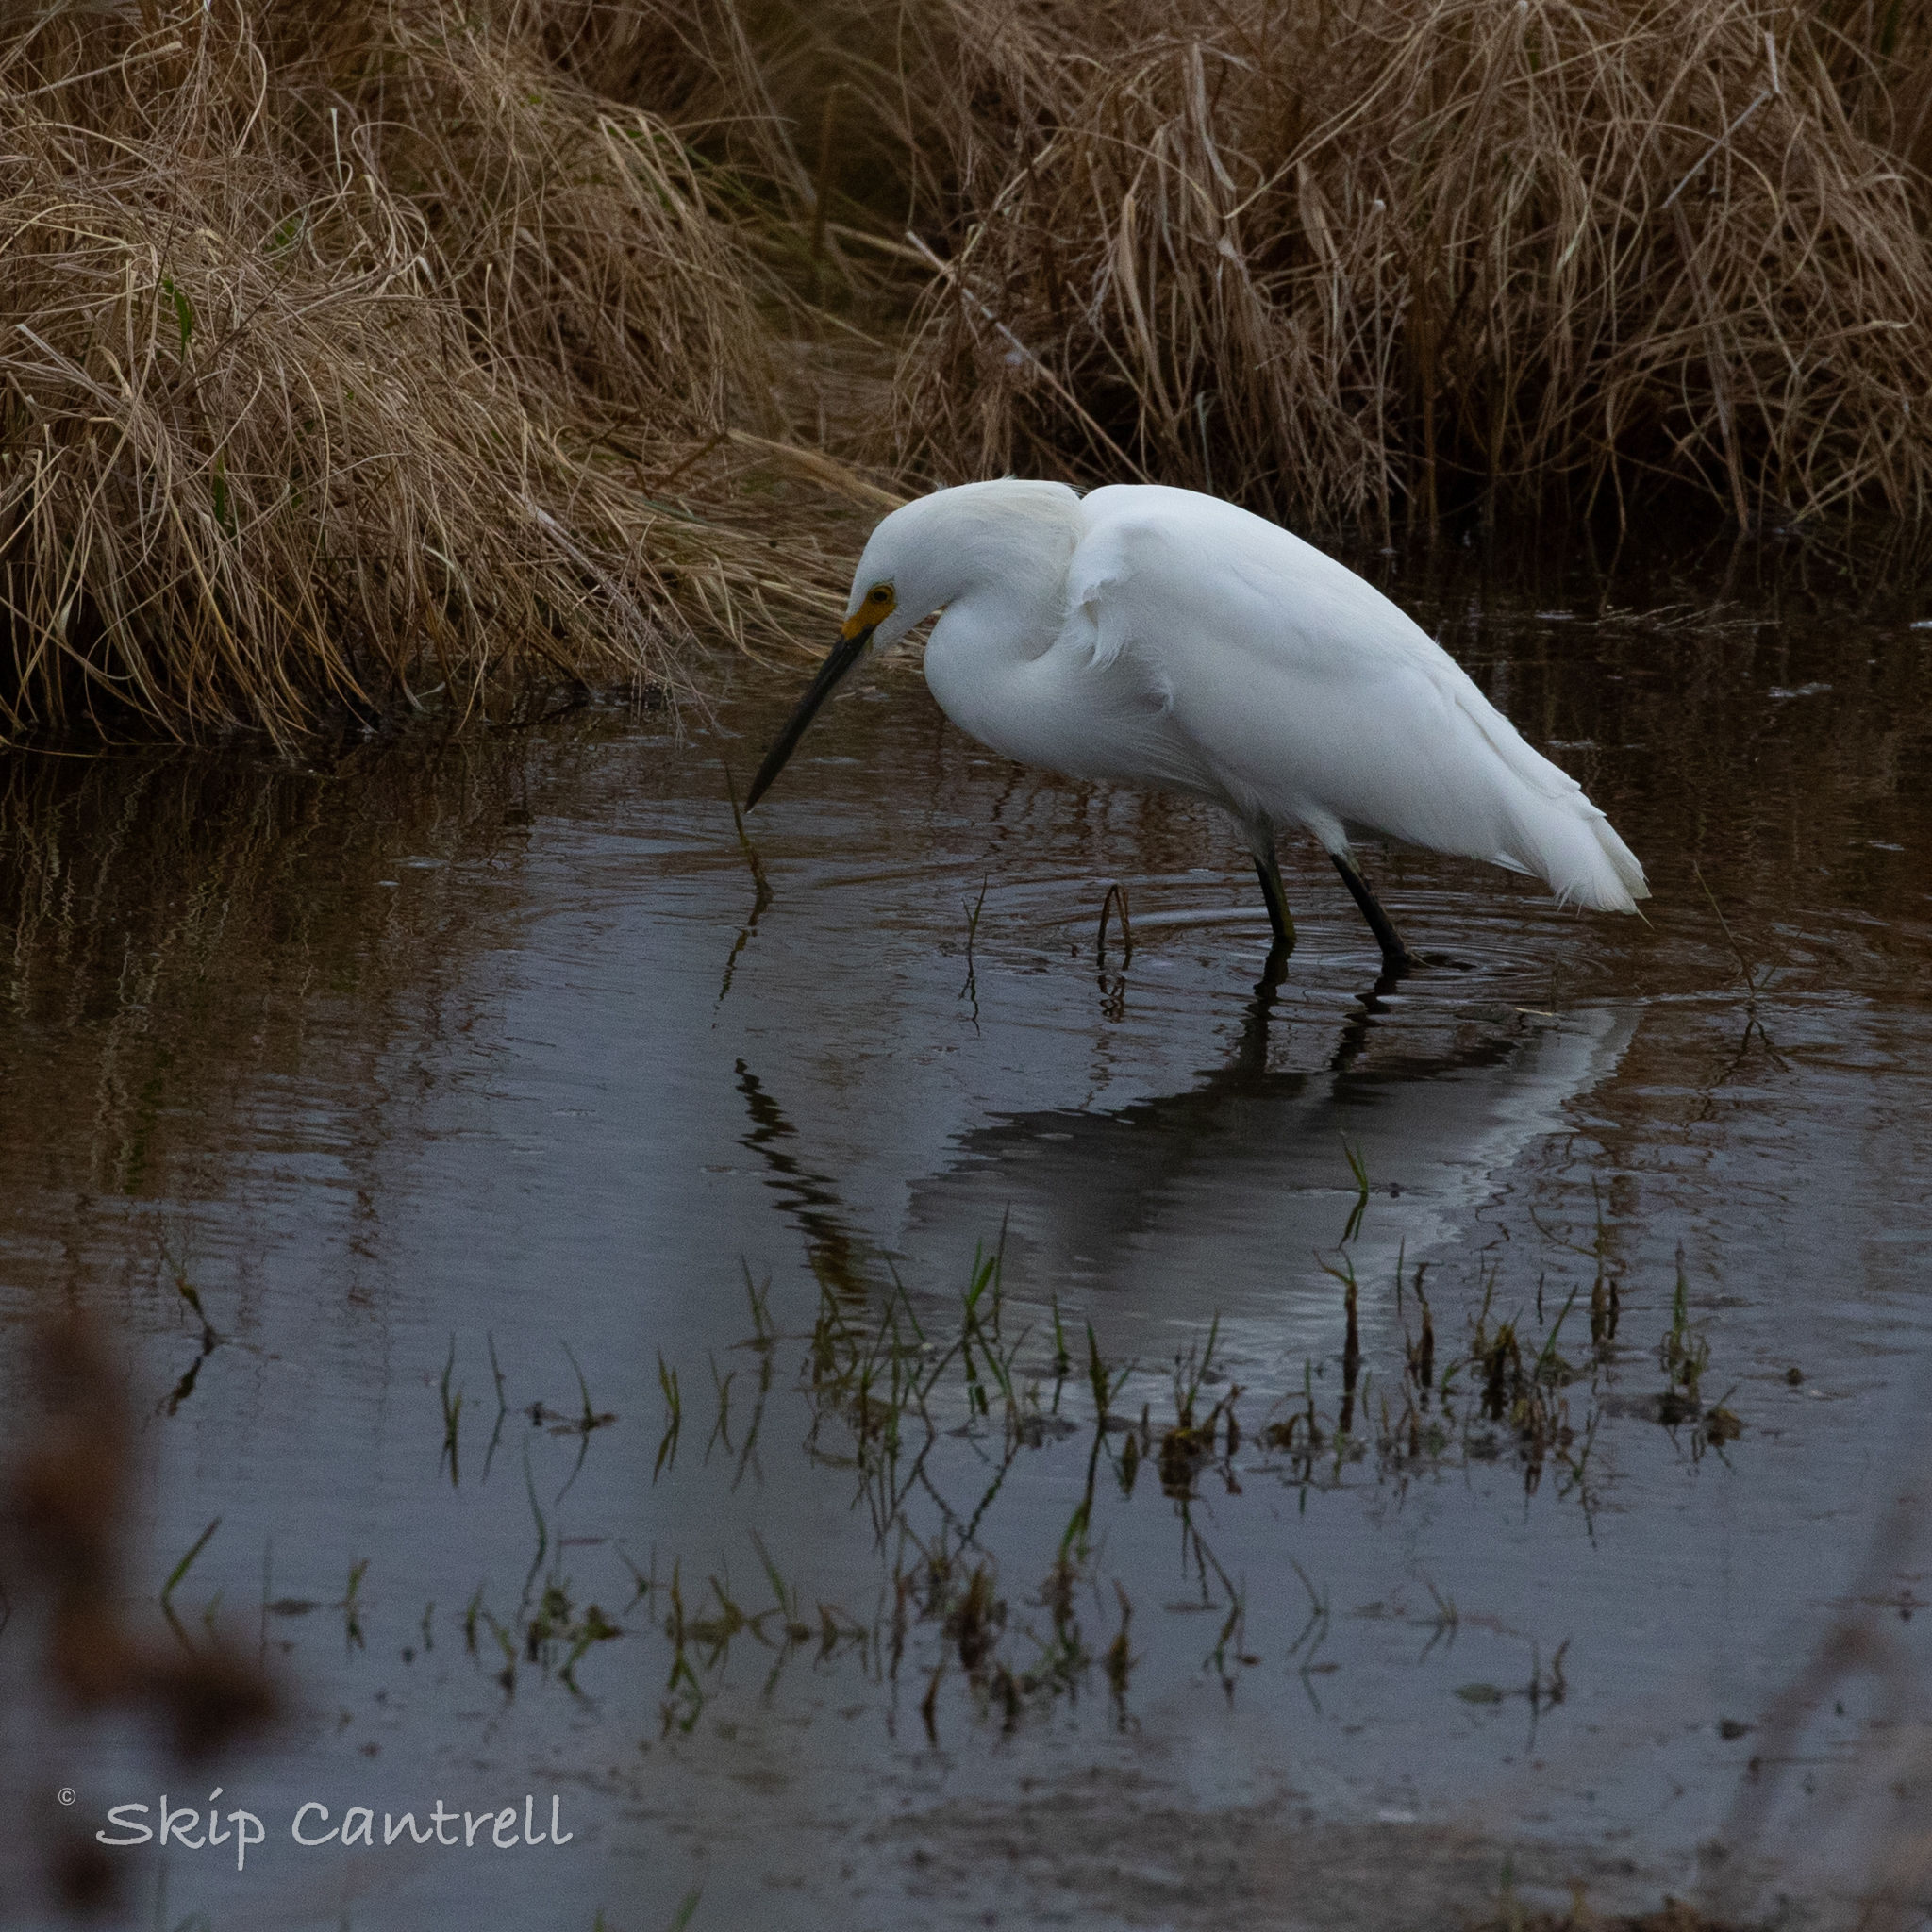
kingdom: Animalia
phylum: Chordata
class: Aves
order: Pelecaniformes
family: Ardeidae
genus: Egretta
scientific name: Egretta thula
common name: Snowy egret
